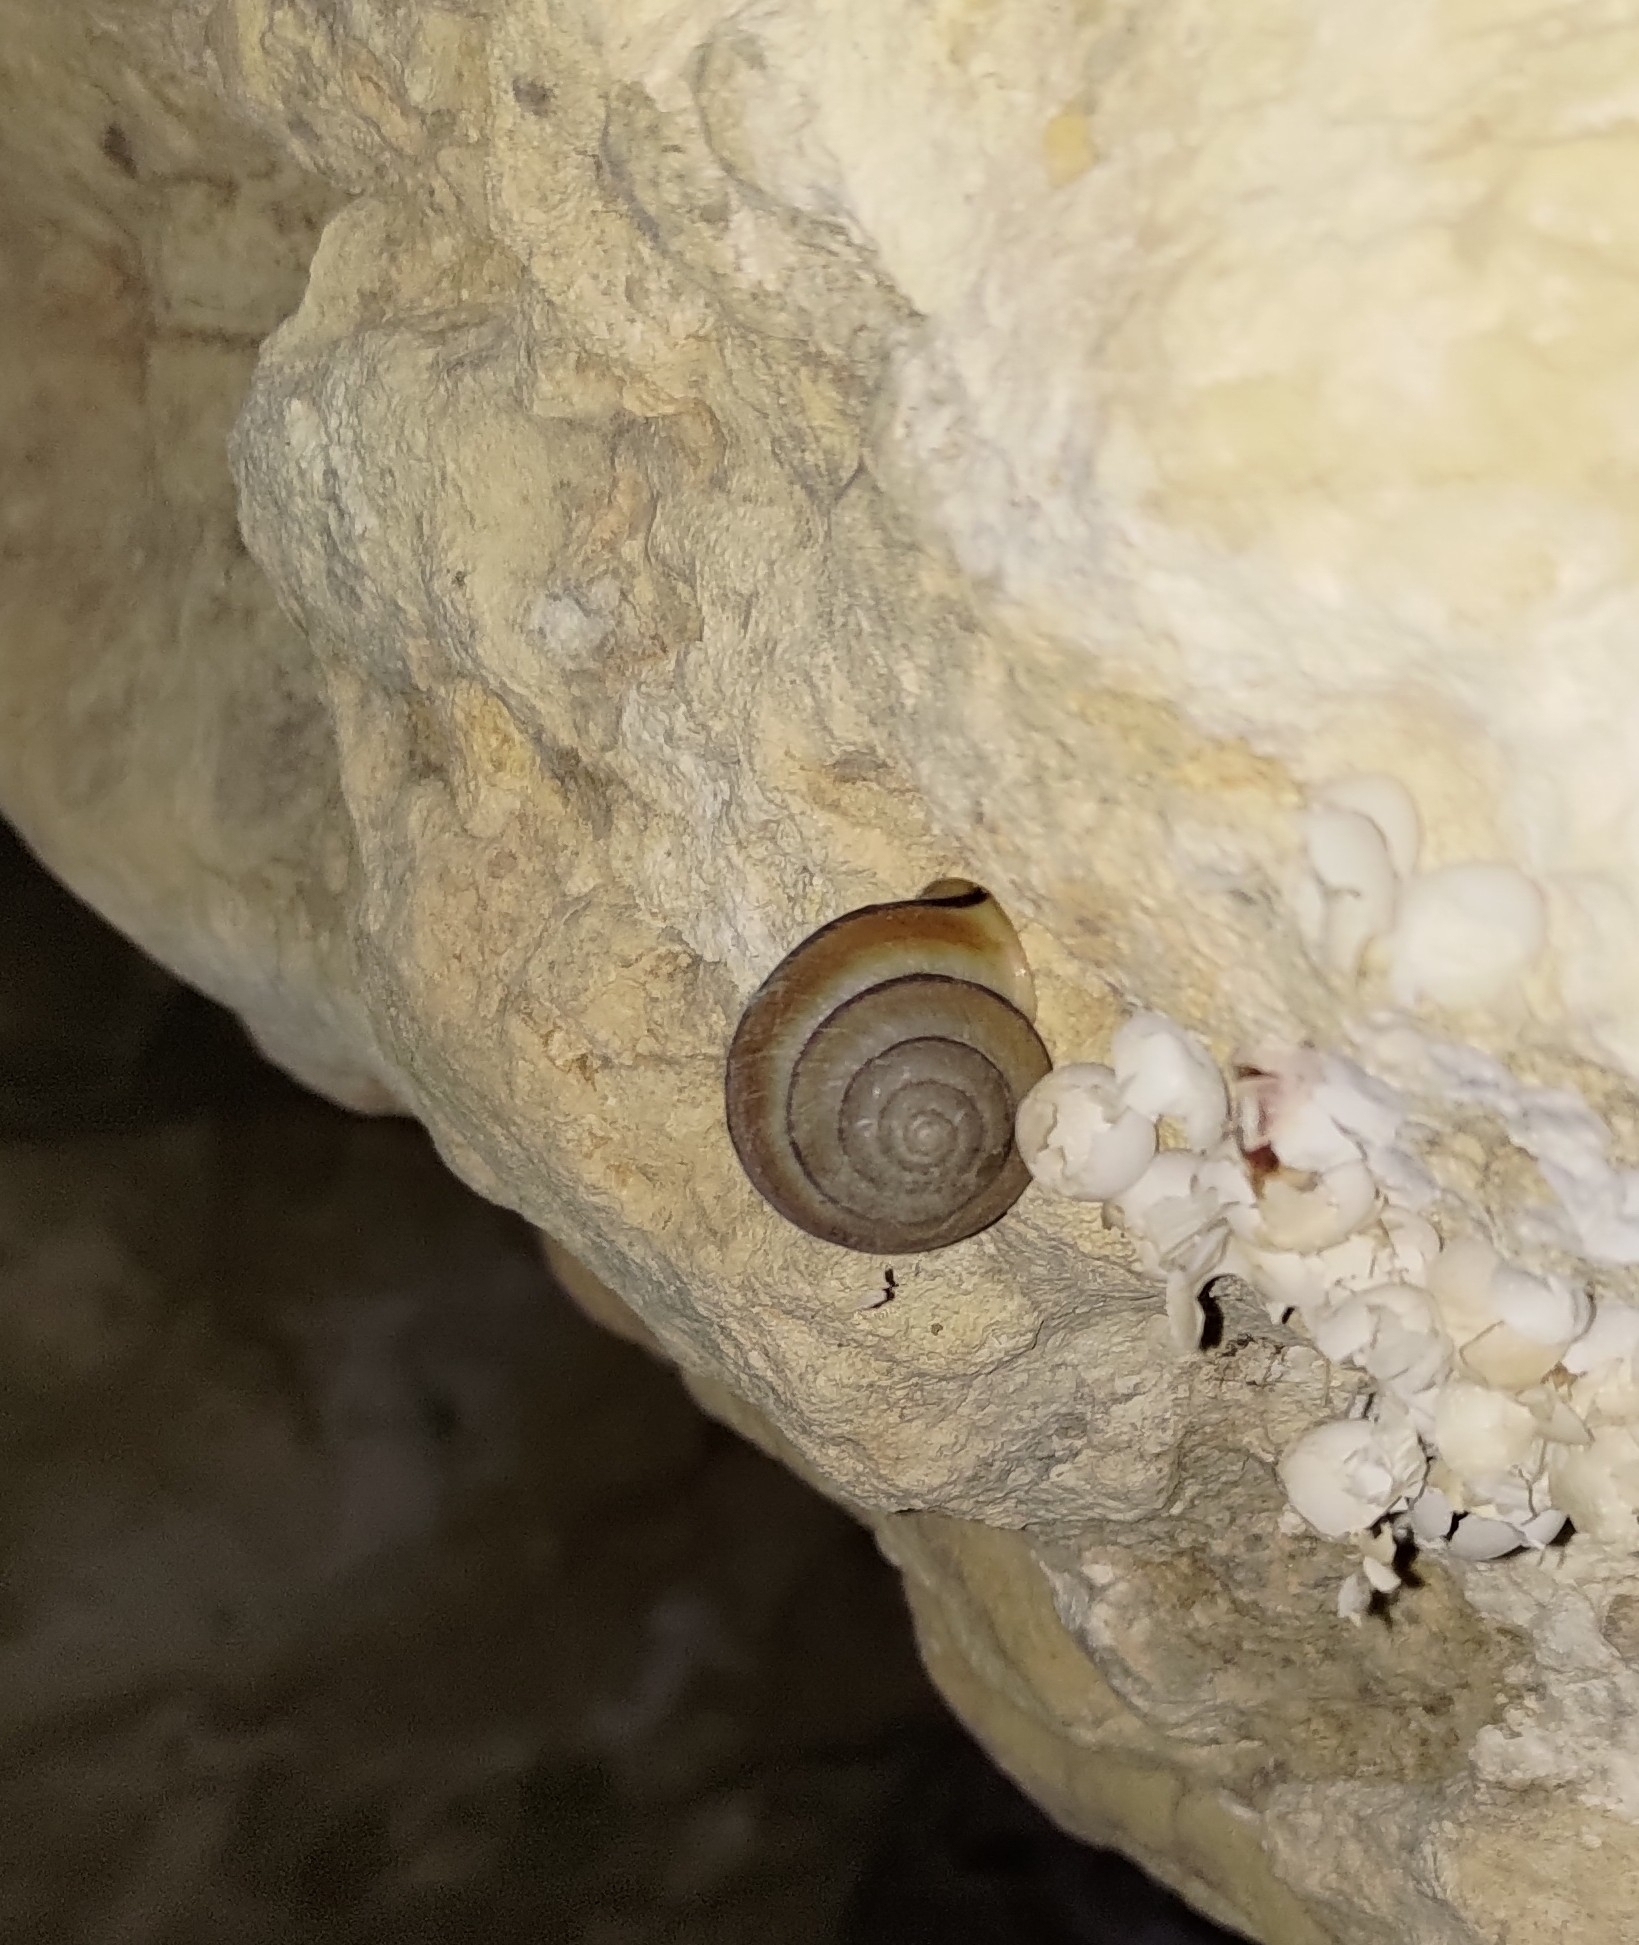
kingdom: Animalia
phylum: Mollusca
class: Gastropoda
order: Stylommatophora
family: Camaenidae
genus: Satsuma
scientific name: Satsuma succincta
